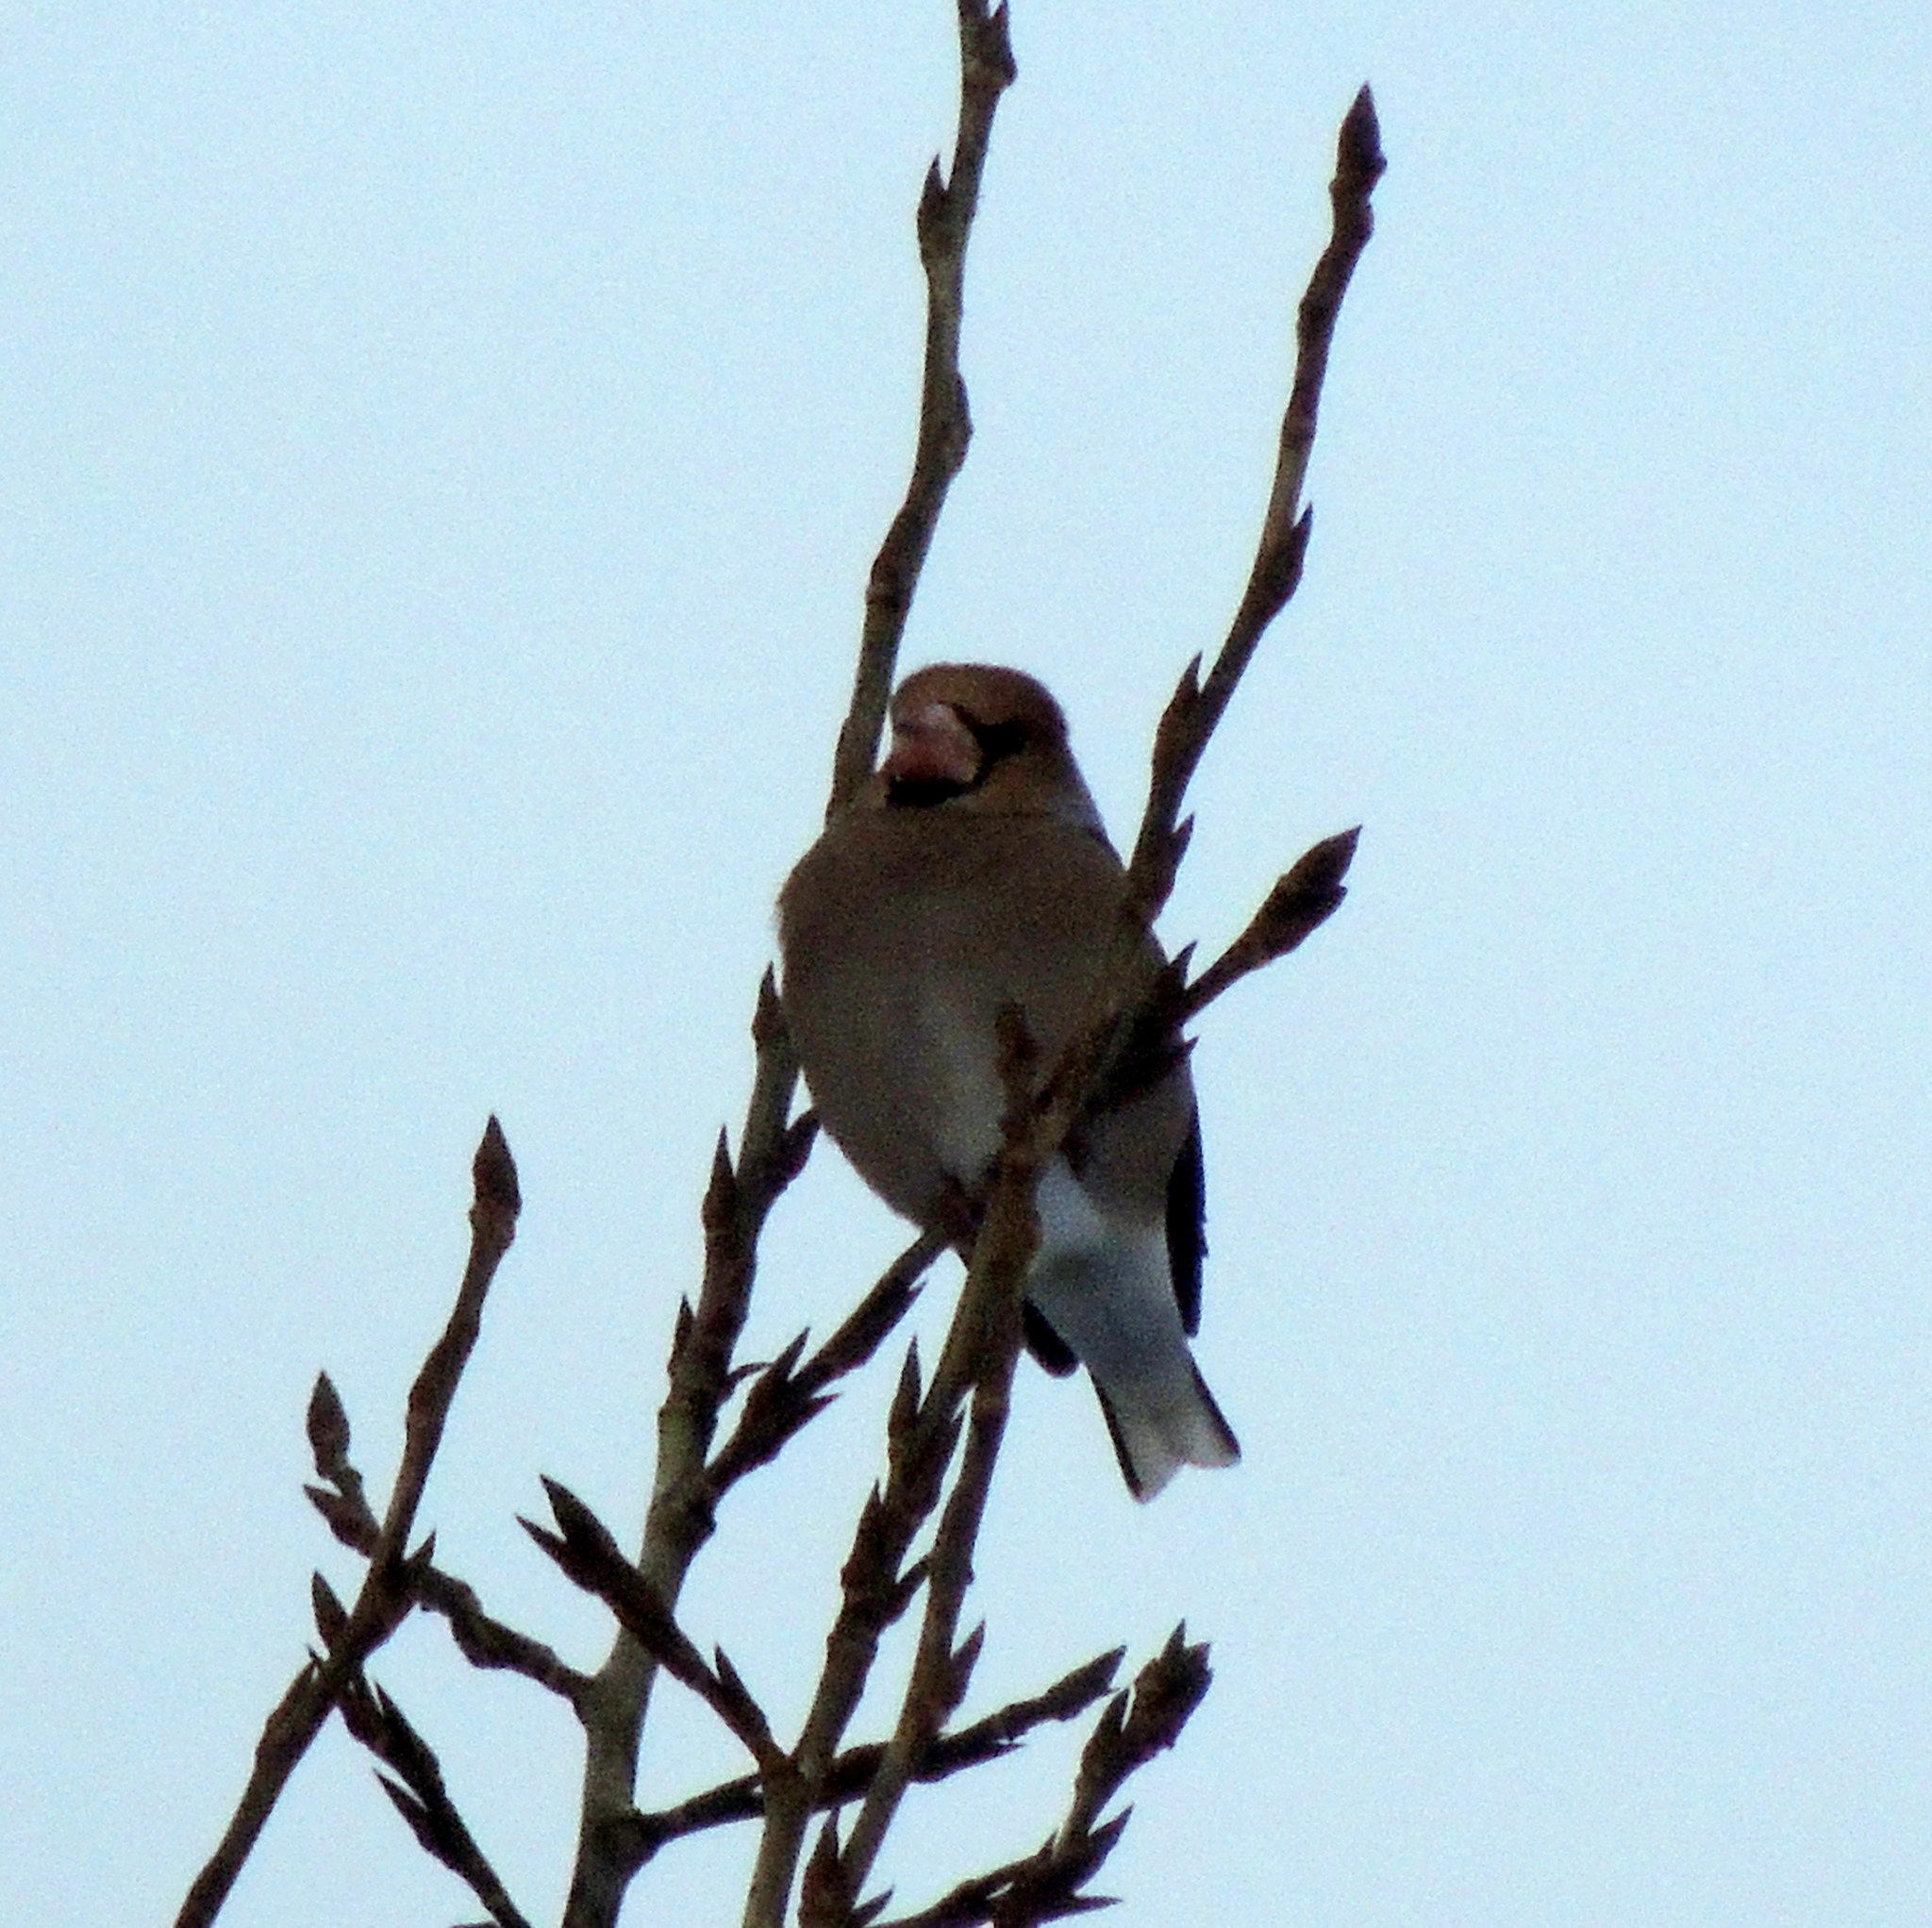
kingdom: Animalia
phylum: Chordata
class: Aves
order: Passeriformes
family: Fringillidae
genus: Coccothraustes
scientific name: Coccothraustes coccothraustes
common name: Hawfinch
